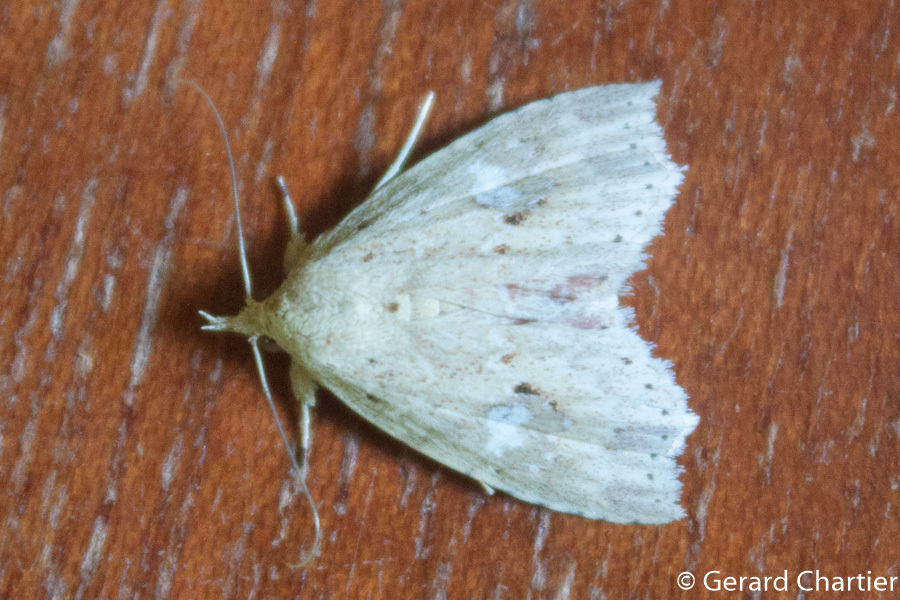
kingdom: Animalia
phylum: Arthropoda
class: Insecta
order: Lepidoptera
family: Erebidae
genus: Olulis
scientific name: Olulis puncticinctalis
